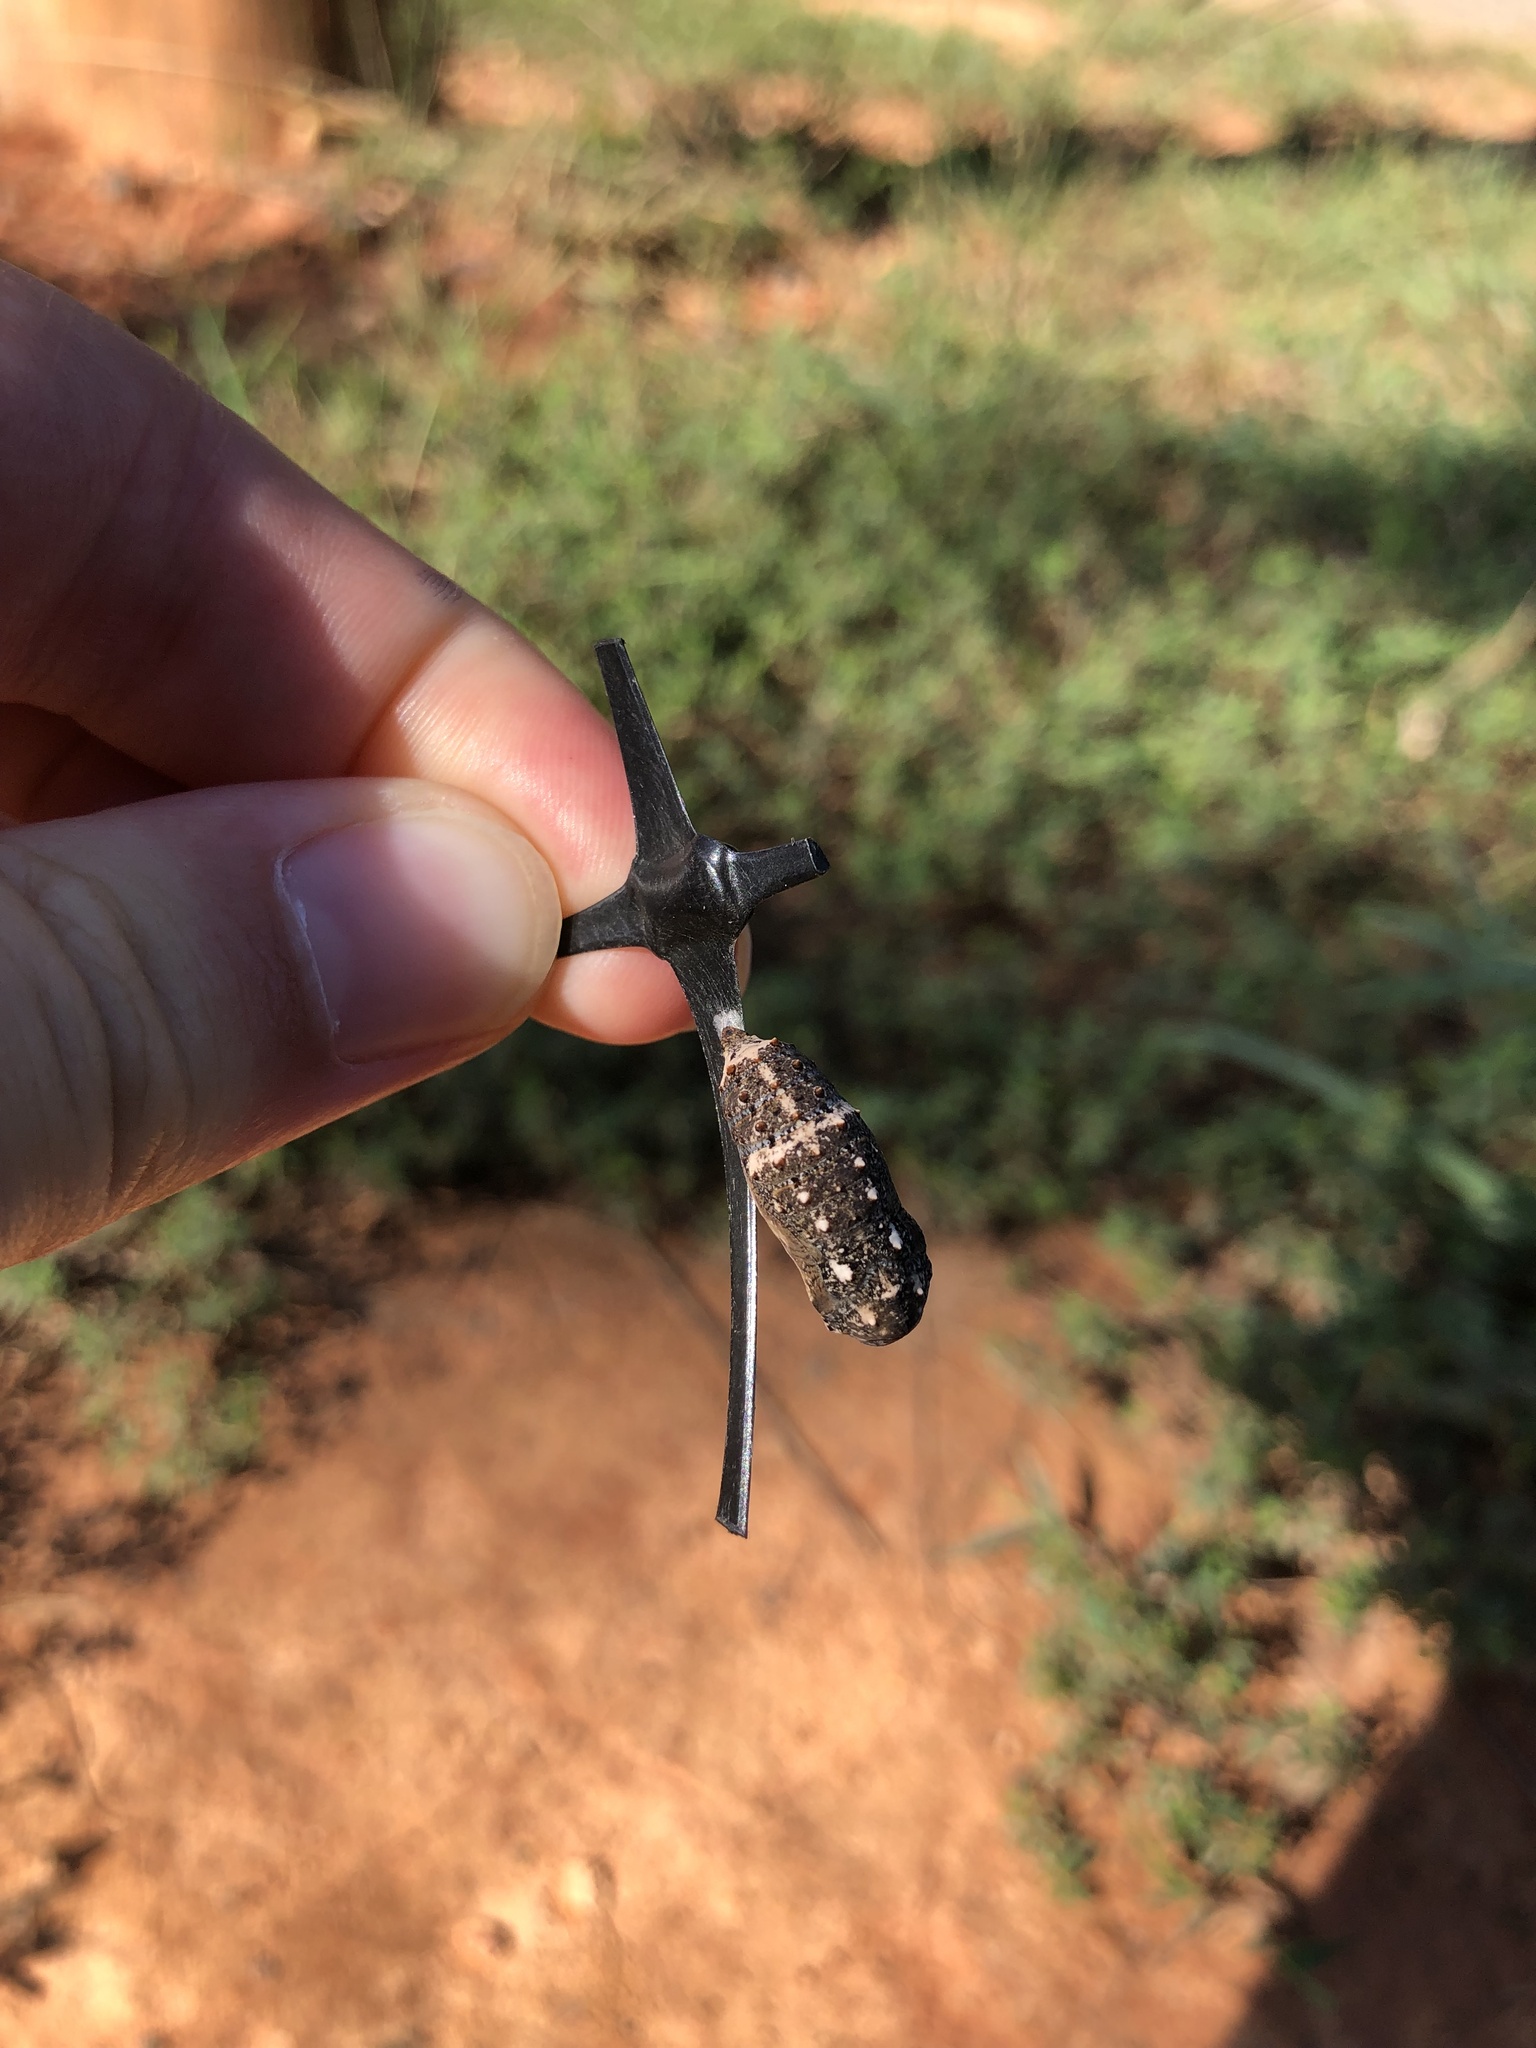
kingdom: Animalia
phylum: Arthropoda
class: Insecta
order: Lepidoptera
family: Nymphalidae
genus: Junonia
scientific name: Junonia coenia
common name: Common buckeye
